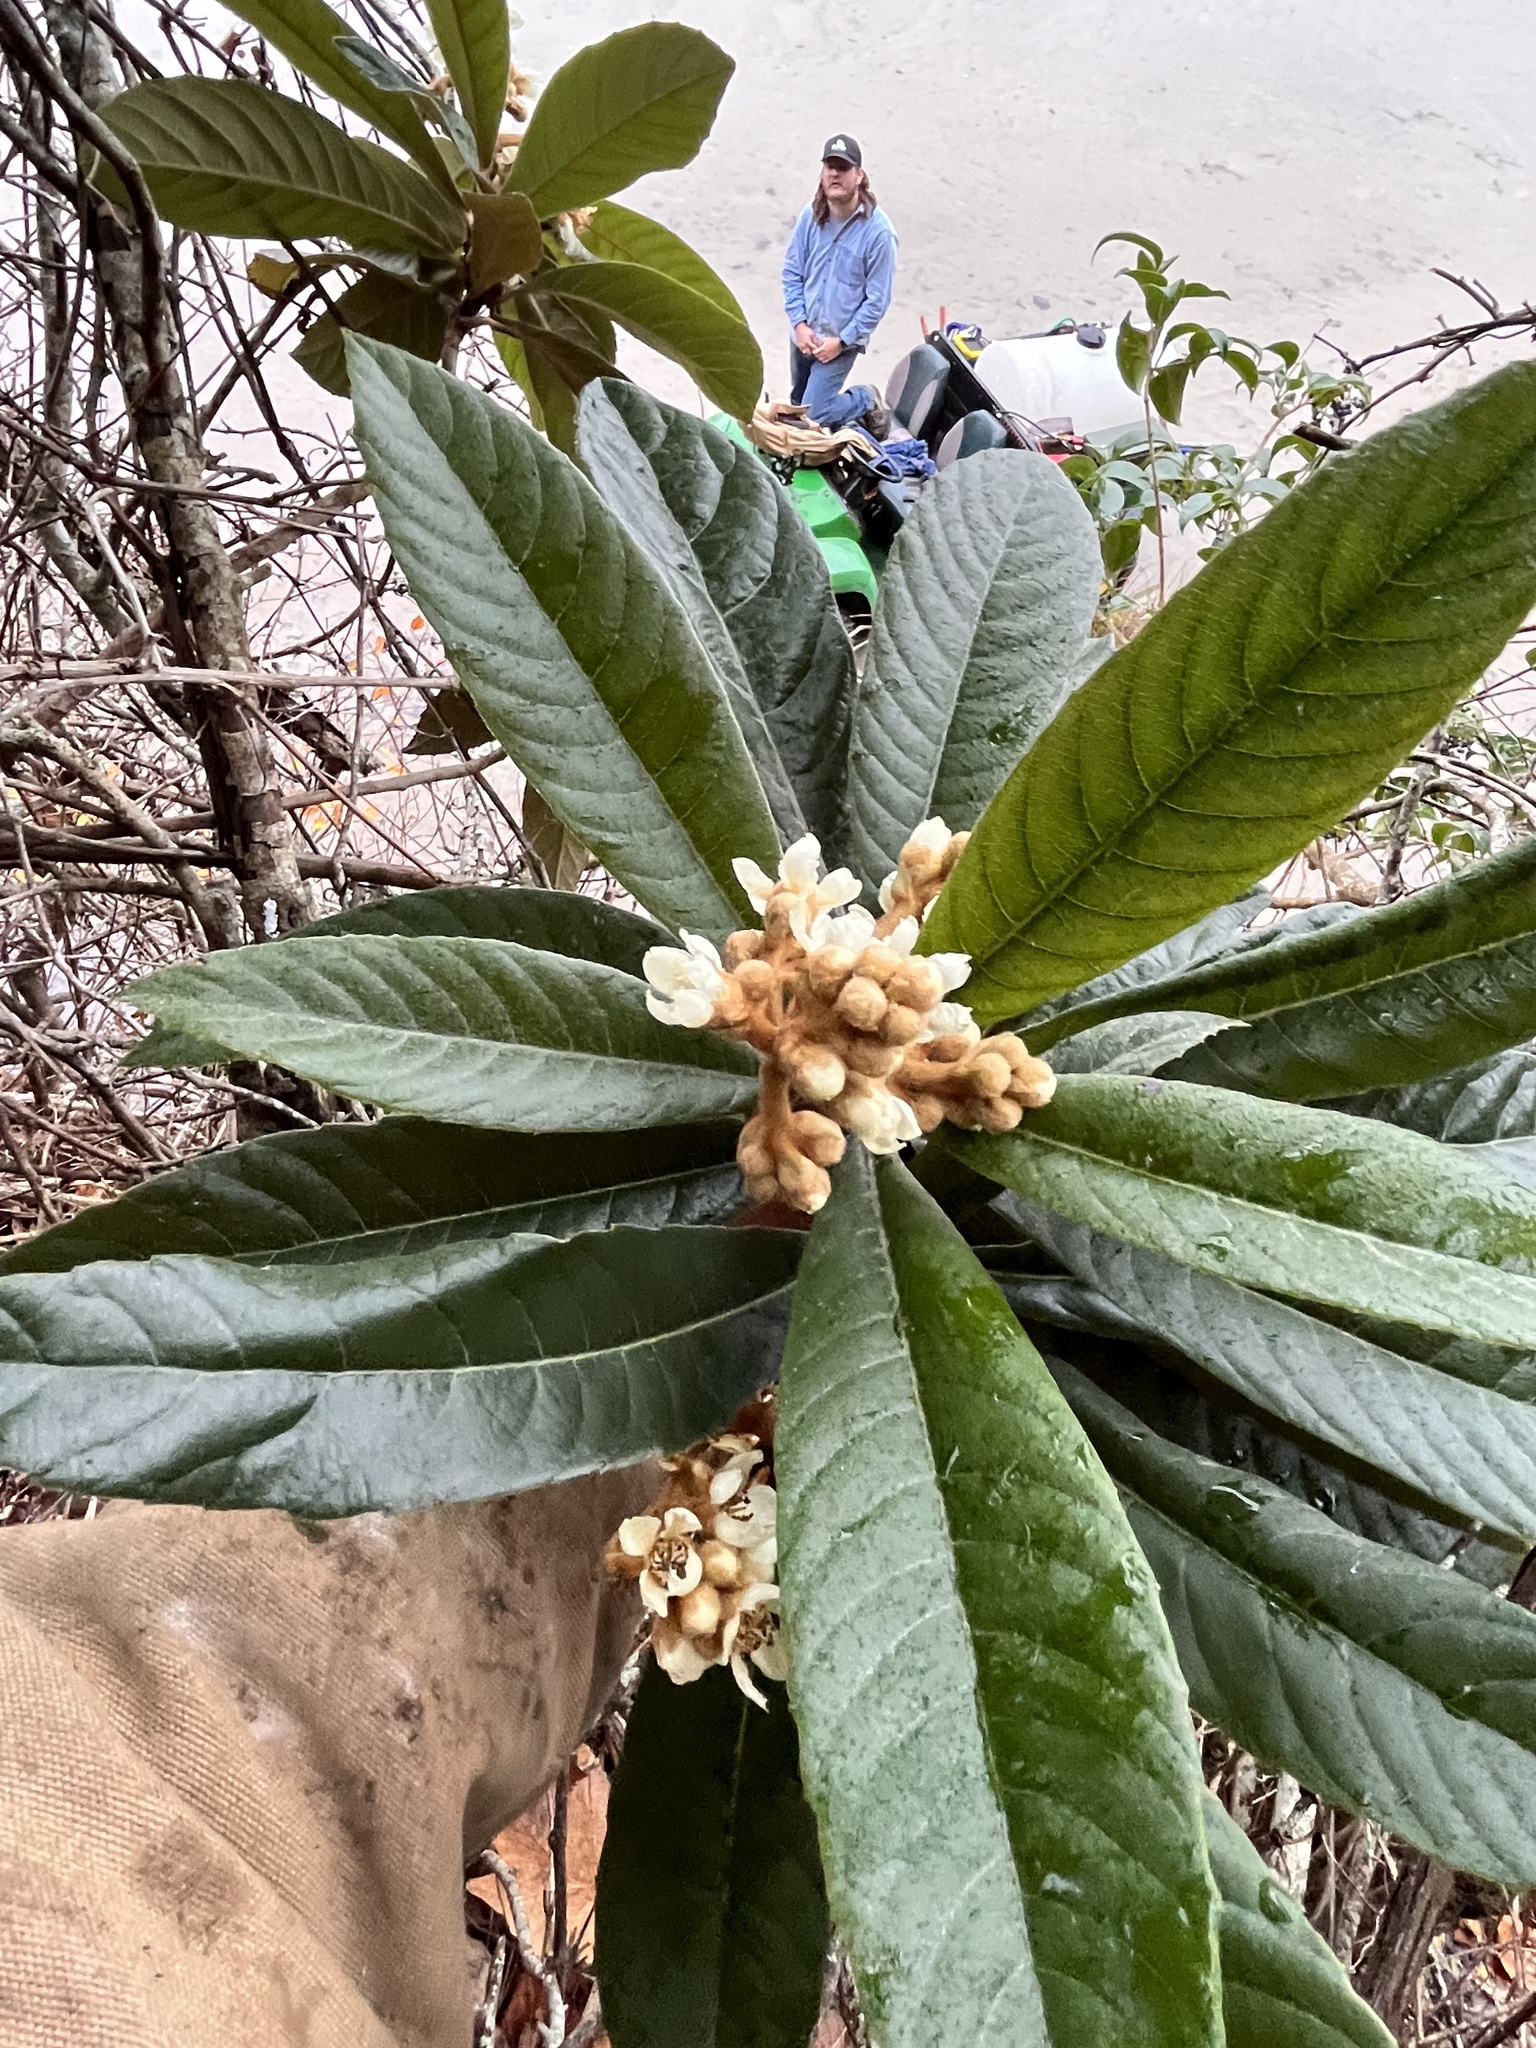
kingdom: Plantae
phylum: Tracheophyta
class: Magnoliopsida
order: Rosales
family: Rosaceae
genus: Rhaphiolepis
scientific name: Rhaphiolepis bibas
